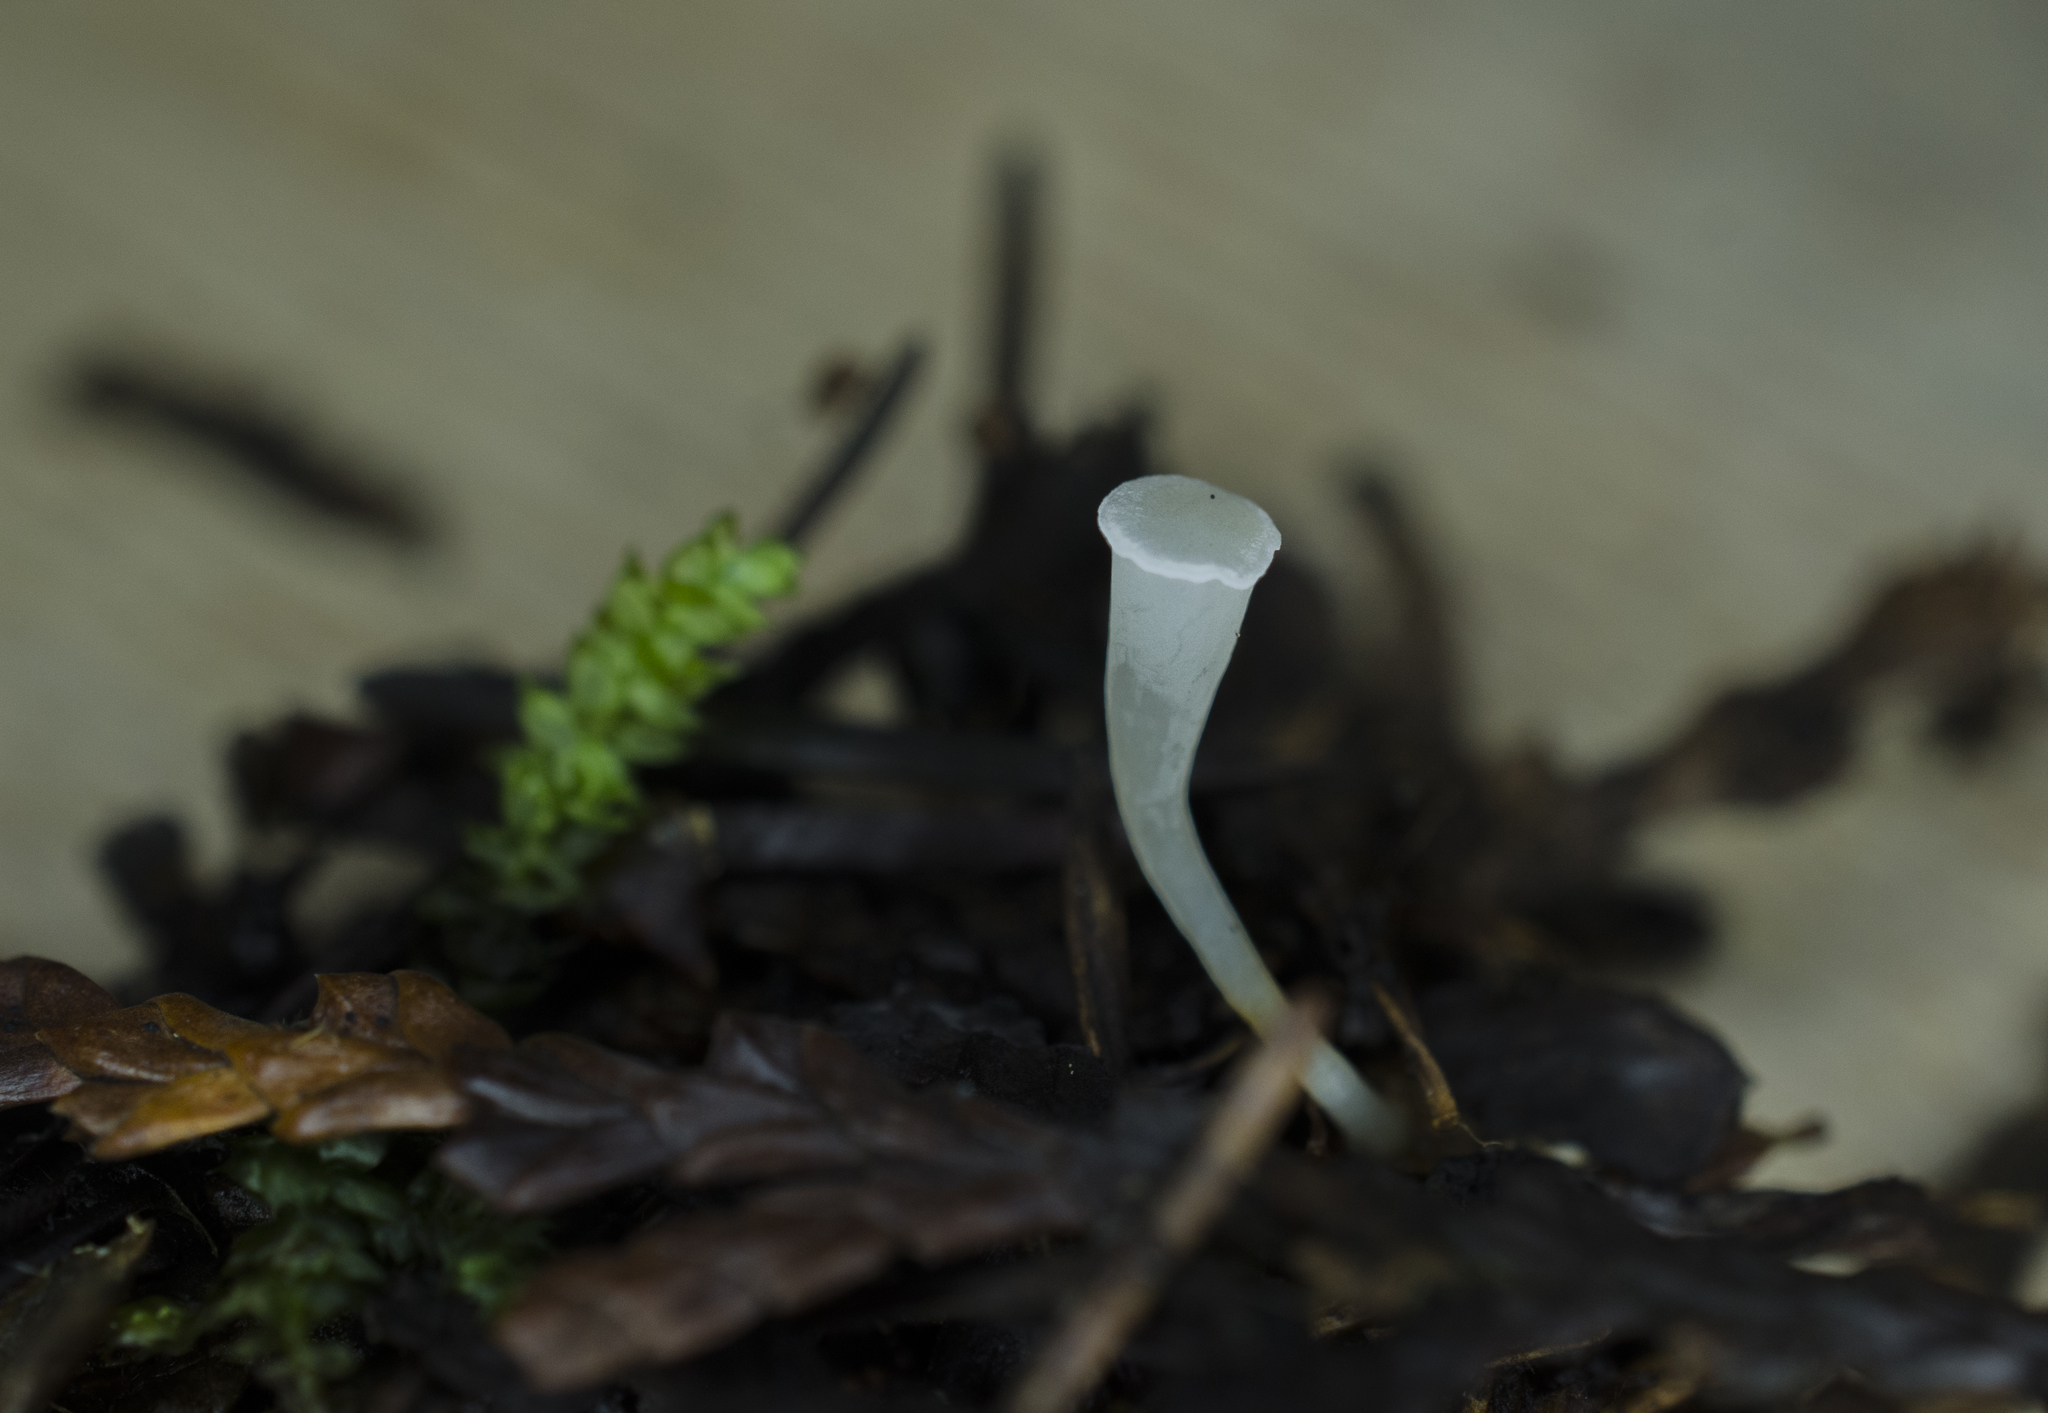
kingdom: Fungi
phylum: Basidiomycota
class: Agaricomycetes
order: Agaricales
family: Clavariaceae
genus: Clavicorona
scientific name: Clavicorona taxophila
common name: Yew club
